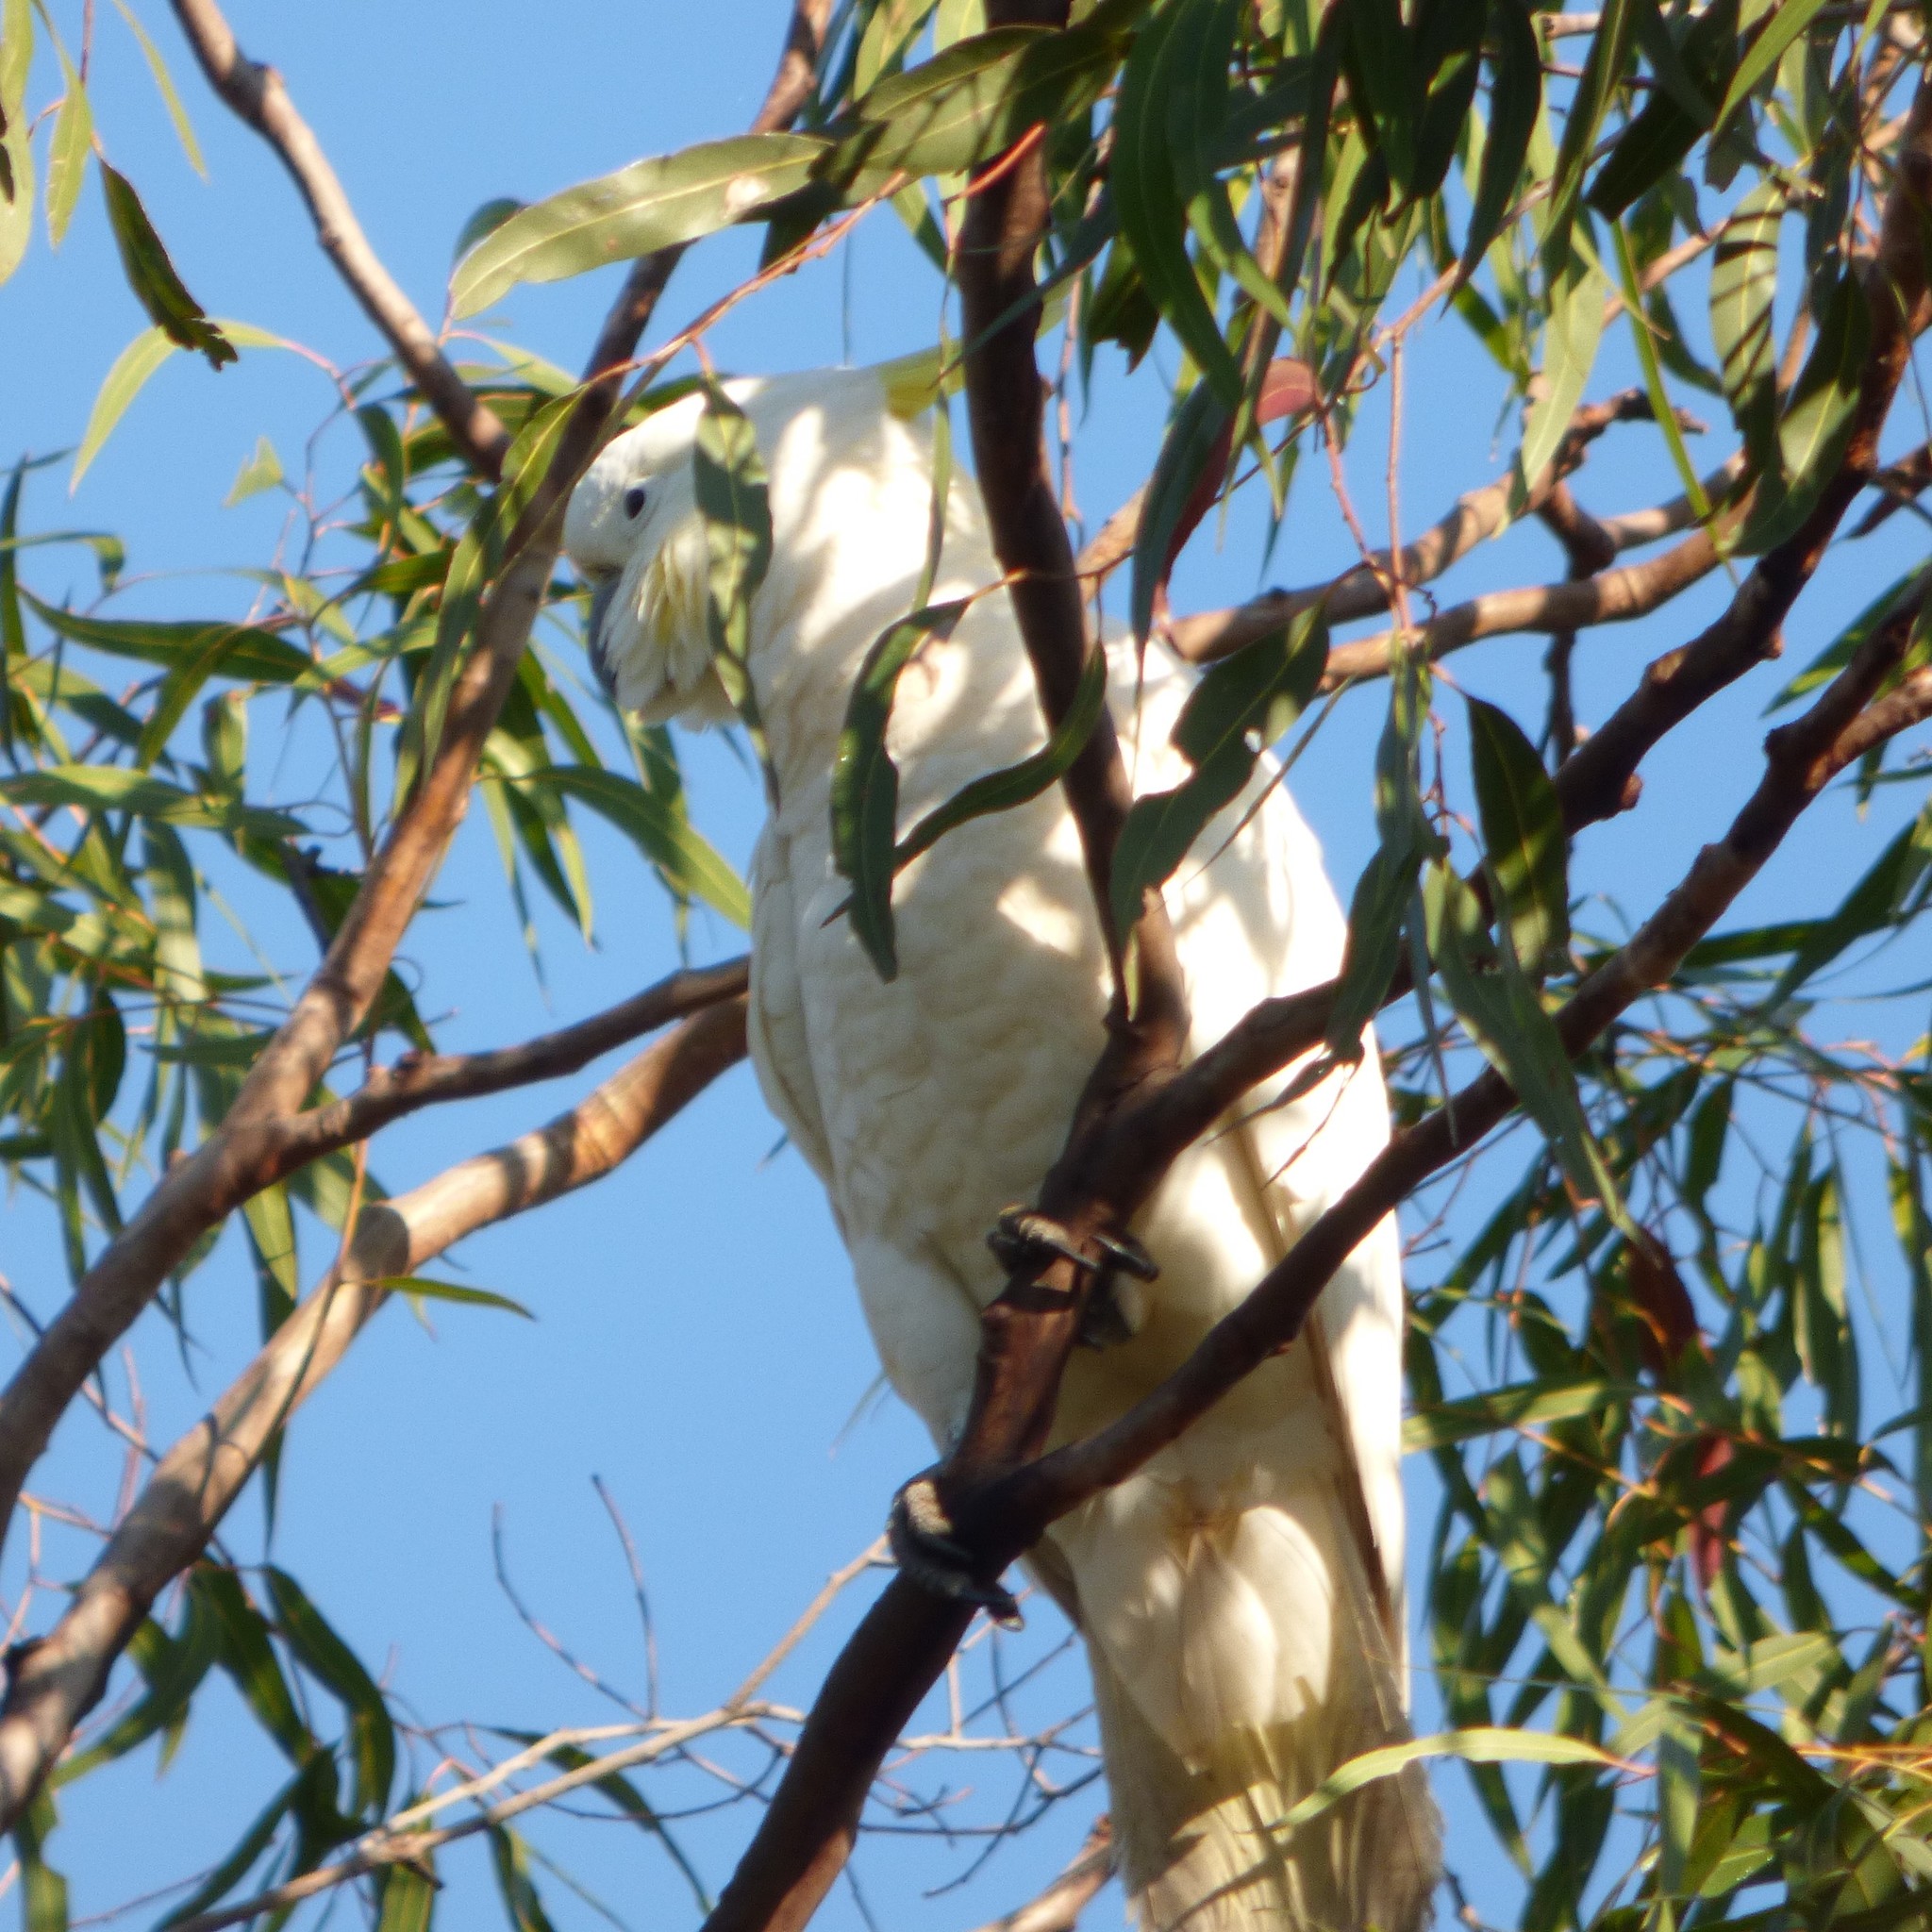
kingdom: Animalia
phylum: Chordata
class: Aves
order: Psittaciformes
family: Psittacidae
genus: Cacatua
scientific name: Cacatua galerita
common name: Sulphur-crested cockatoo
